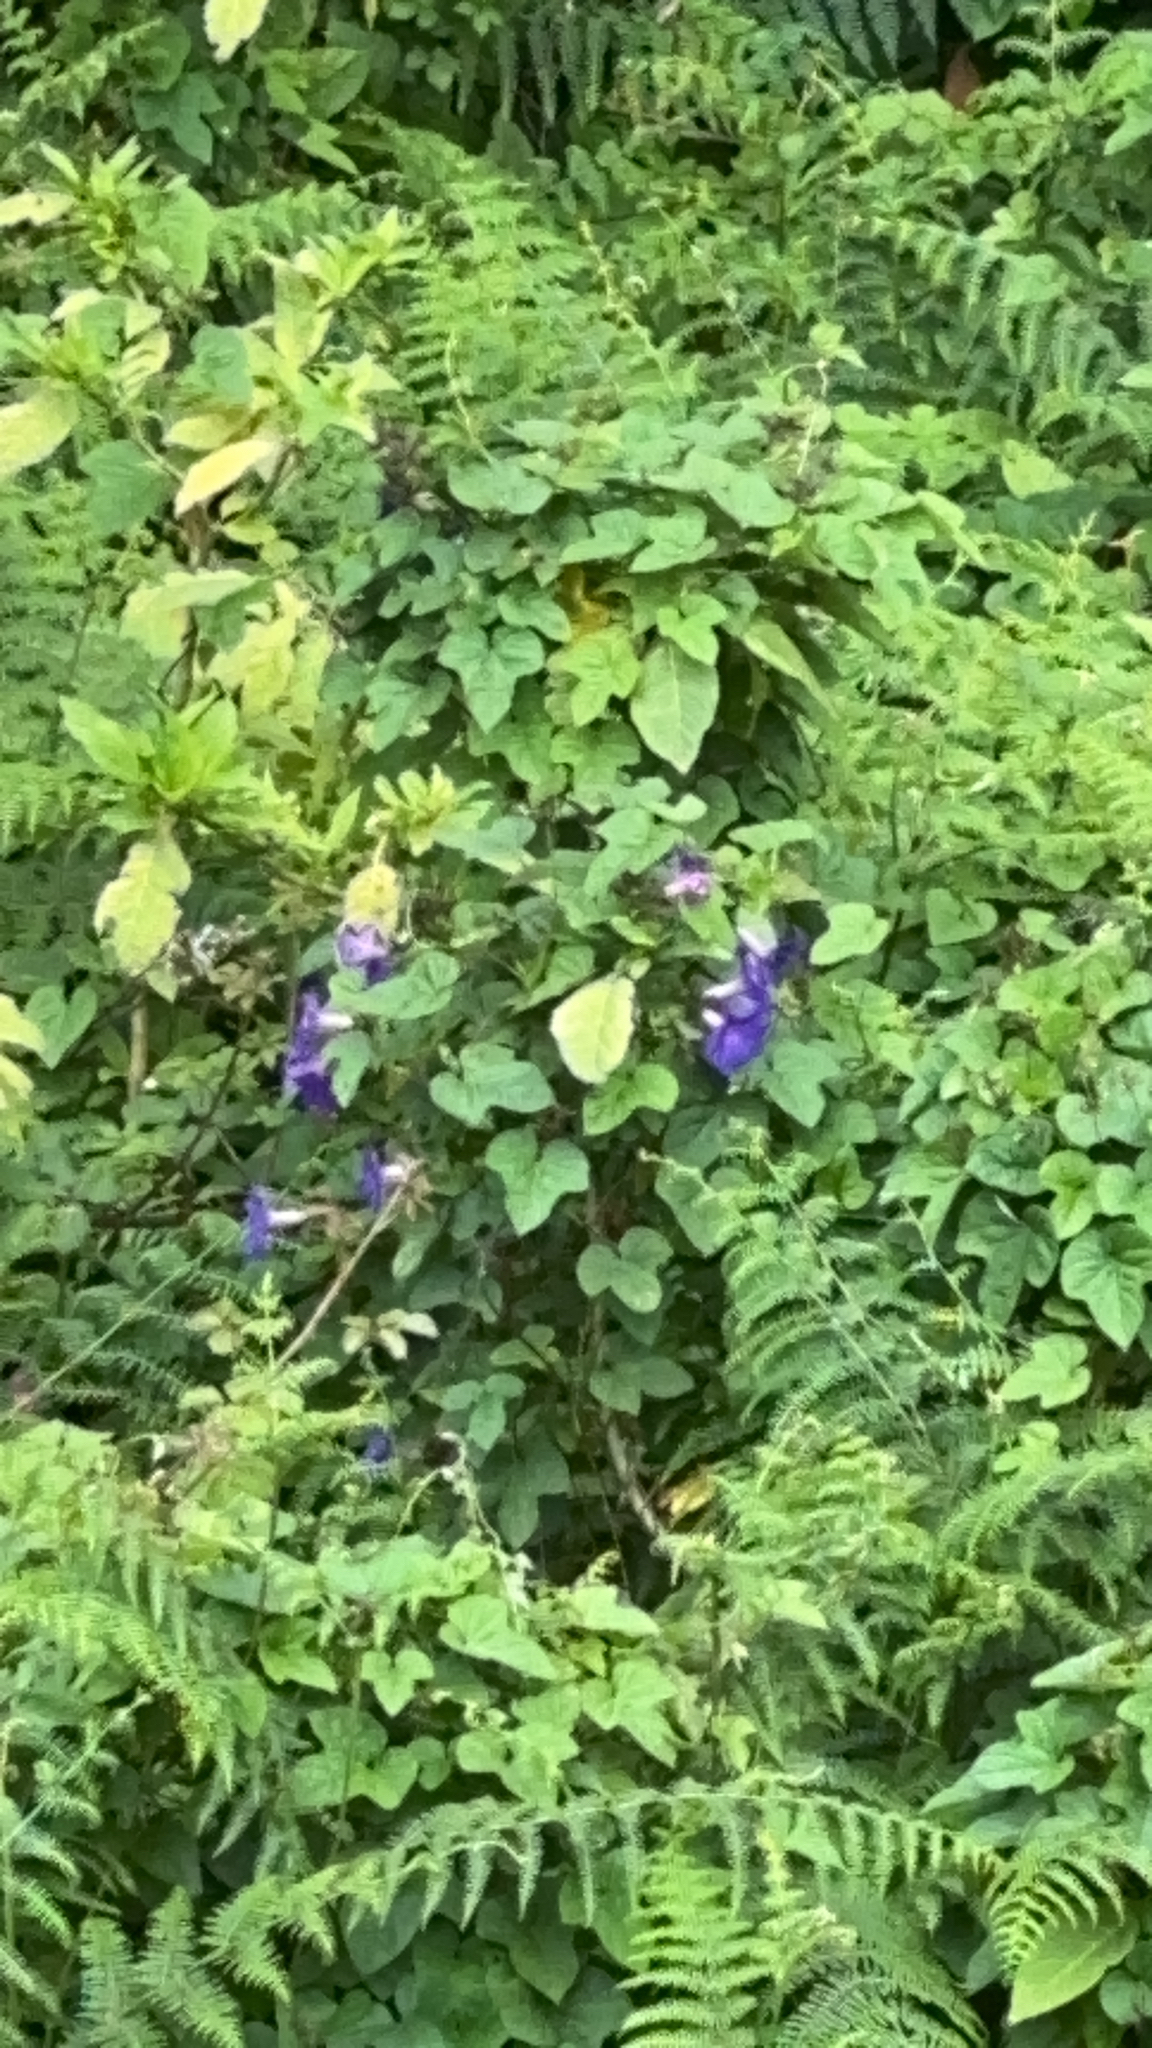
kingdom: Plantae
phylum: Tracheophyta
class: Magnoliopsida
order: Solanales
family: Convolvulaceae
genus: Ipomoea
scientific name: Ipomoea indica
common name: Blue dawnflower
